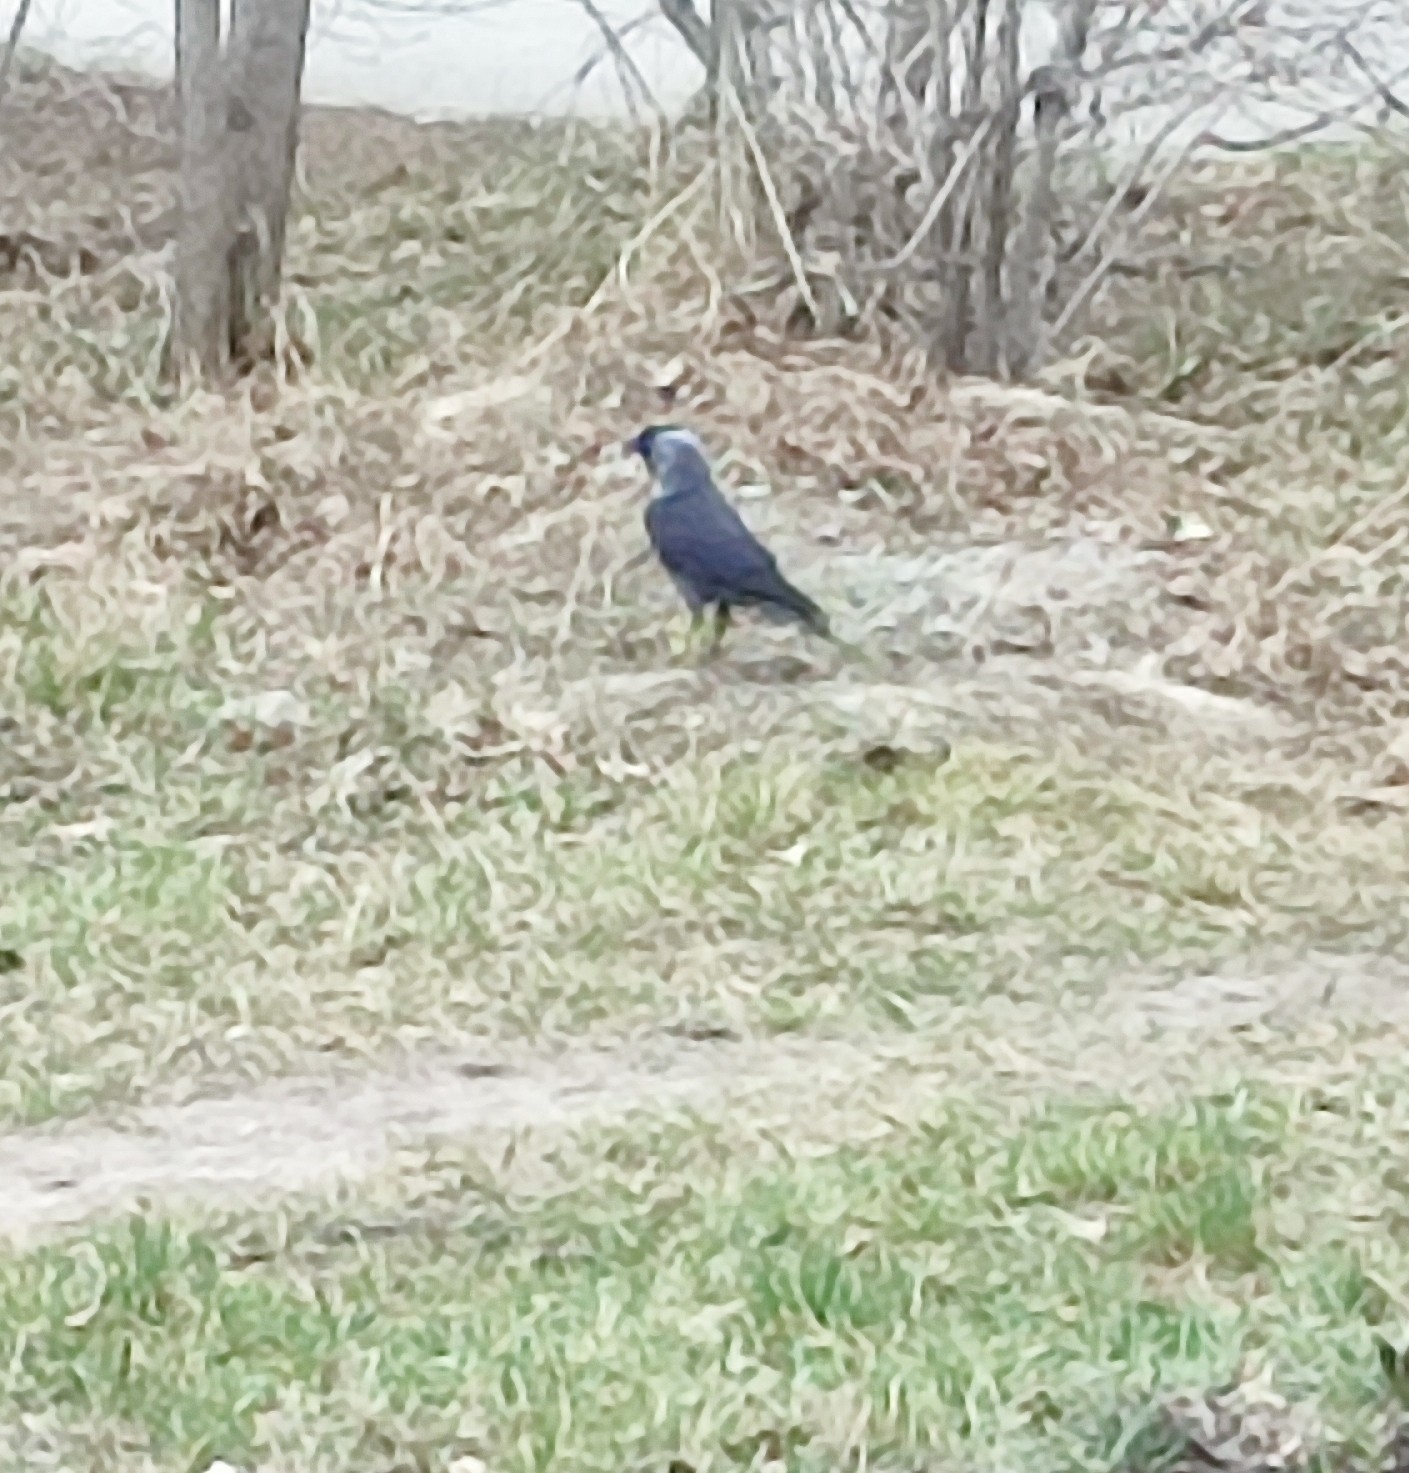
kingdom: Animalia
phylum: Chordata
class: Aves
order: Passeriformes
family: Corvidae
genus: Coloeus
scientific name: Coloeus monedula
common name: Western jackdaw
